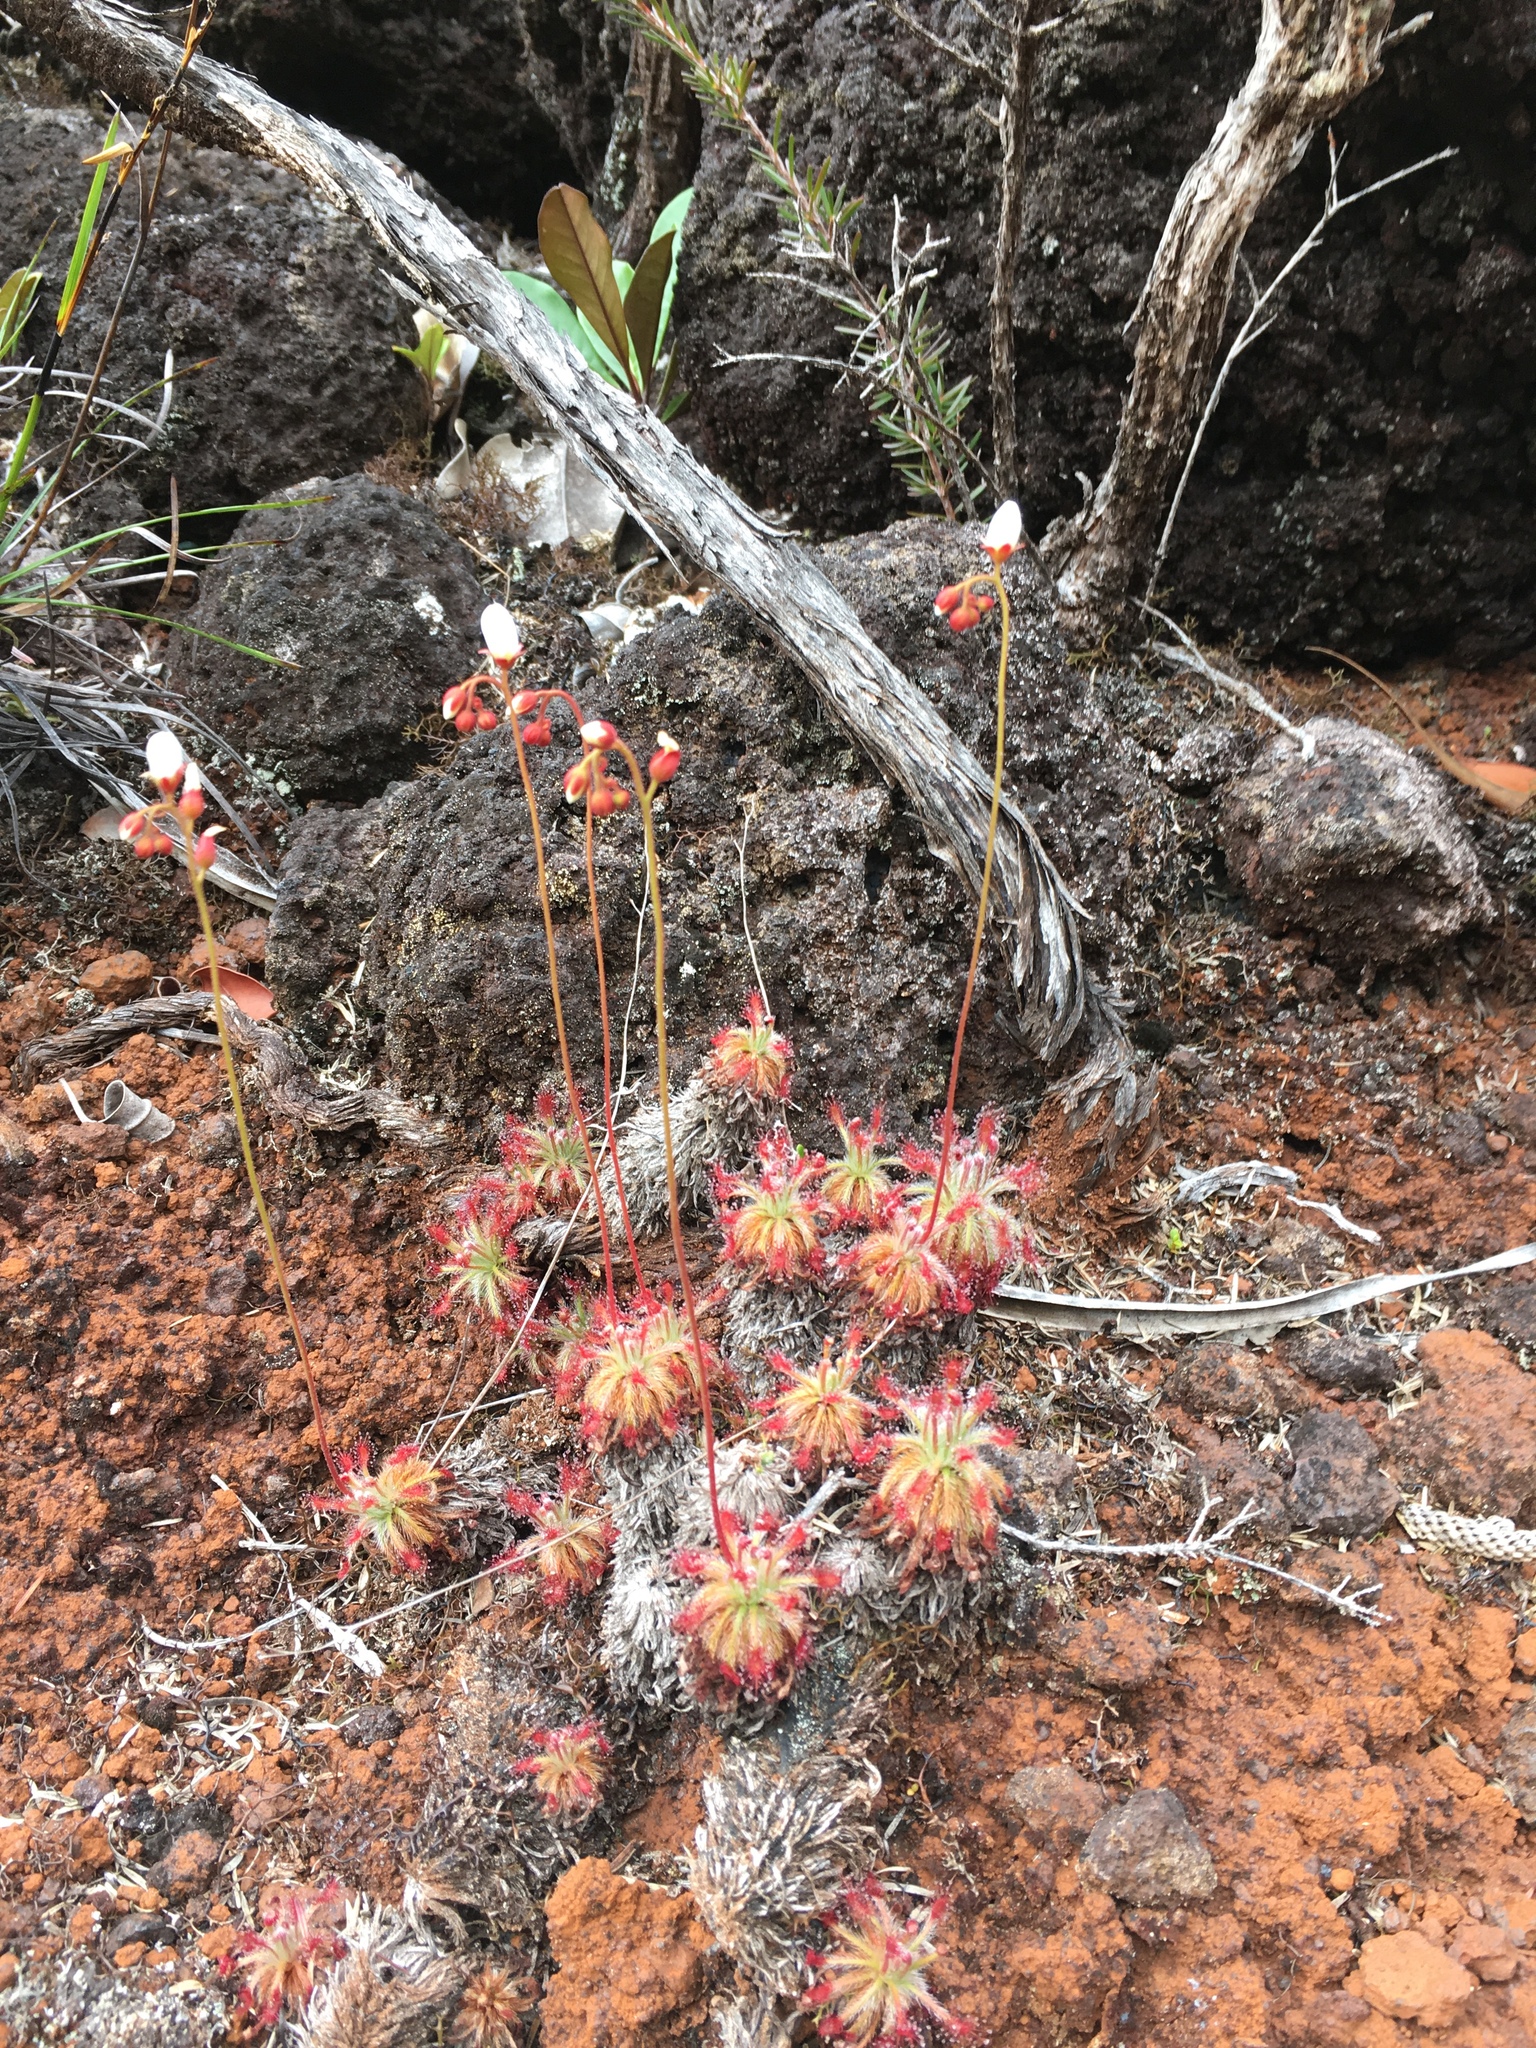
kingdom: Plantae
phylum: Tracheophyta
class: Magnoliopsida
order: Caryophyllales
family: Droseraceae
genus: Drosera
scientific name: Drosera neocaledonica
